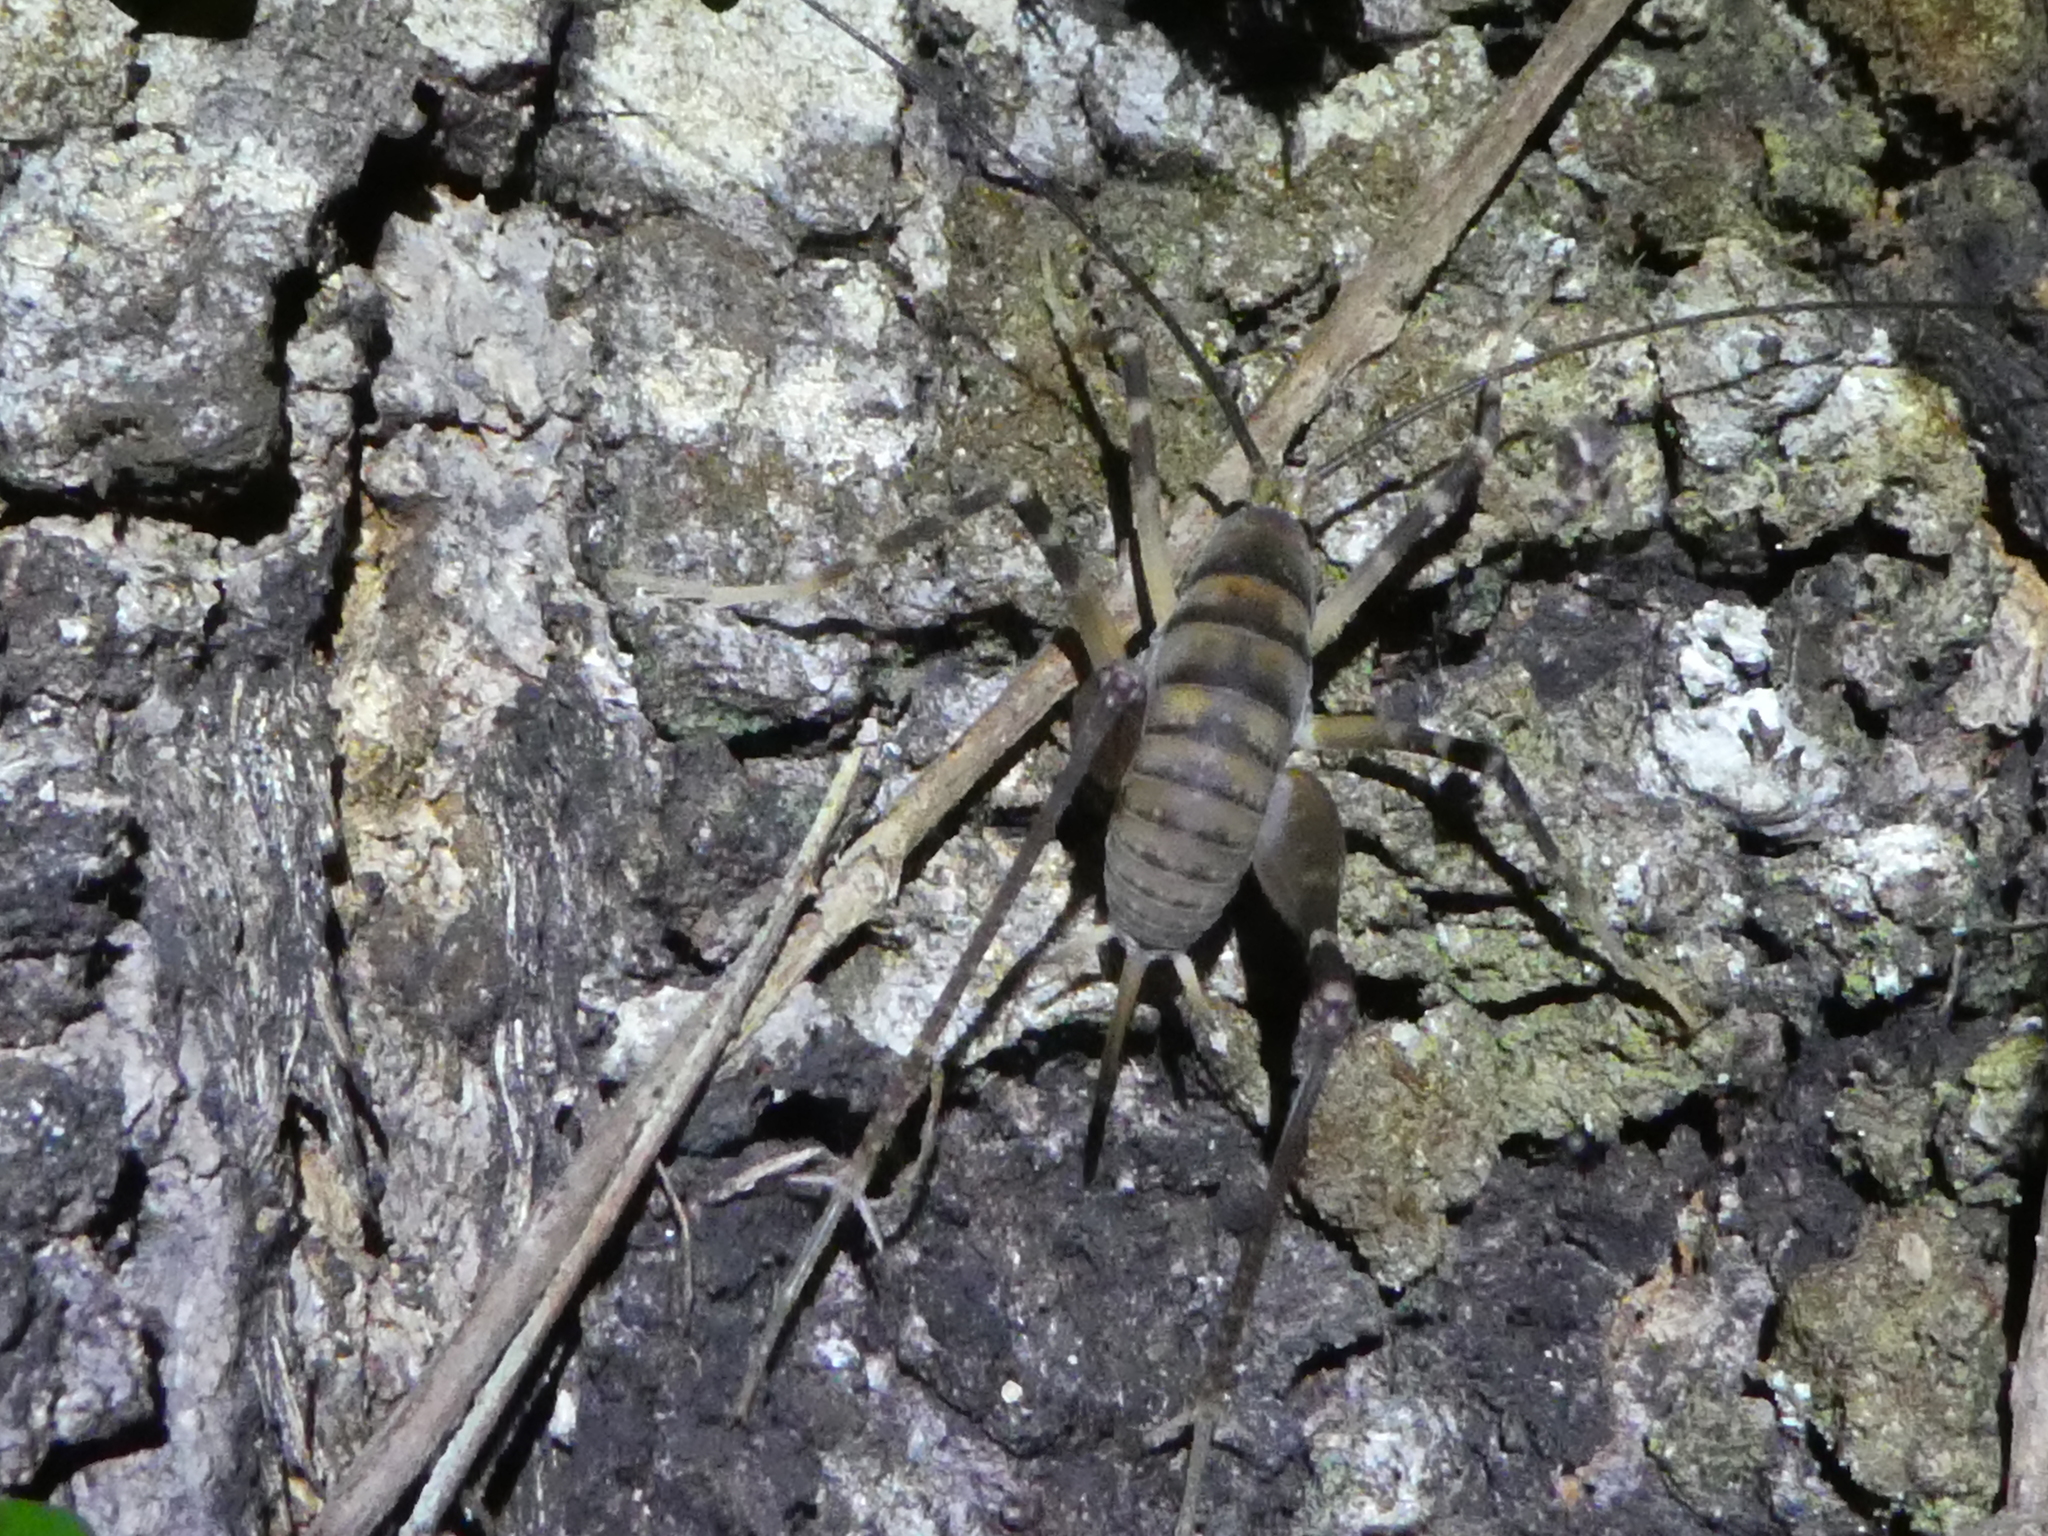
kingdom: Animalia
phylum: Arthropoda
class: Insecta
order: Orthoptera
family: Rhaphidophoridae
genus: Pachyrhamma
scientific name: Pachyrhamma edwardsii
